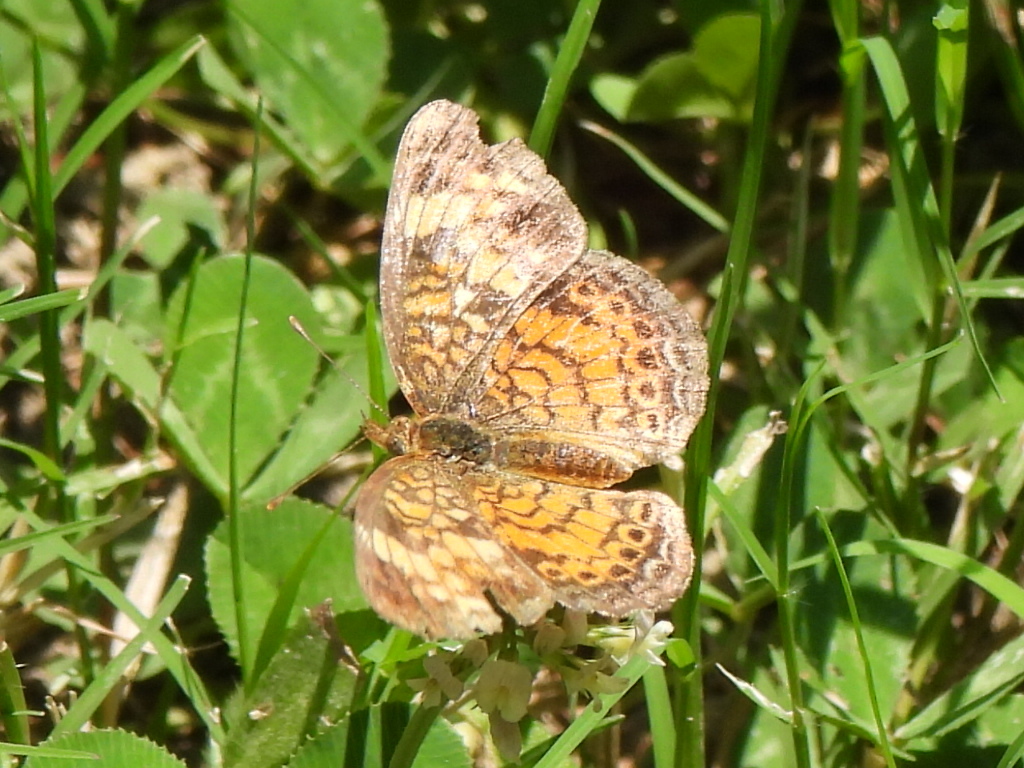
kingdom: Animalia
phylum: Arthropoda
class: Insecta
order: Lepidoptera
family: Nymphalidae
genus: Phyciodes
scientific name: Phyciodes tharos
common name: Pearl crescent
